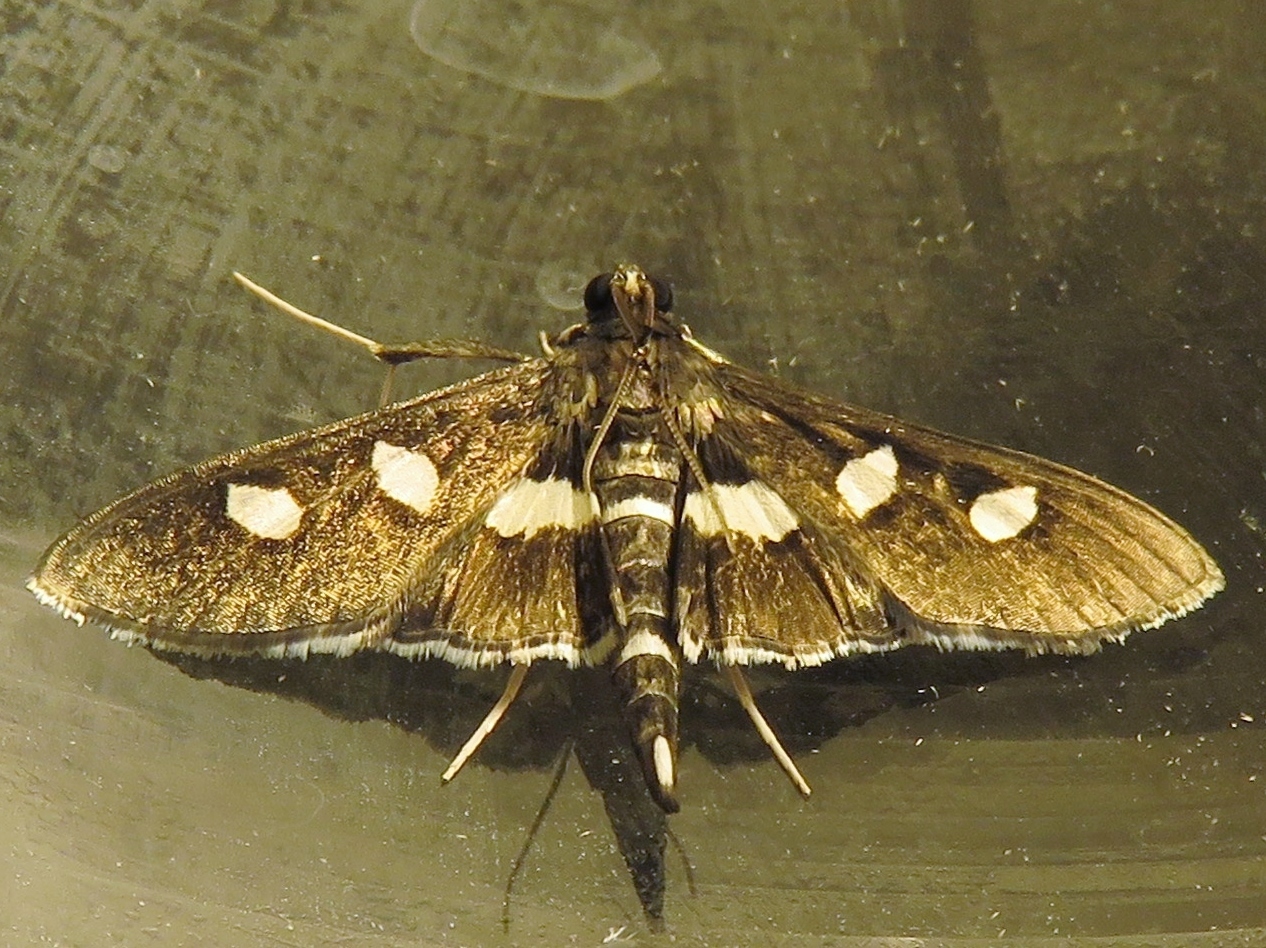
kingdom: Animalia
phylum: Arthropoda
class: Insecta
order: Lepidoptera
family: Crambidae
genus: Desmia
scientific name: Desmia funeralis
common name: Grape leaf folder moth
